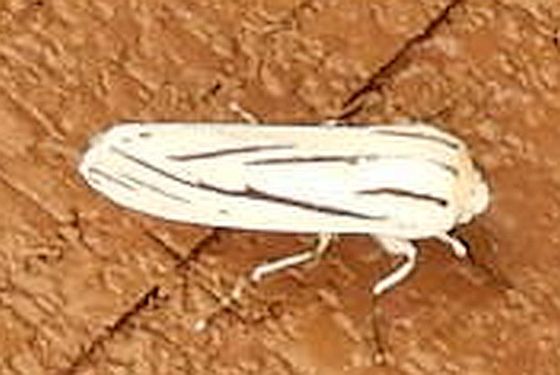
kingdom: Animalia
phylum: Arthropoda
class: Insecta
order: Lepidoptera
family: Erebidae
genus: Ectypia
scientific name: Ectypia clio
